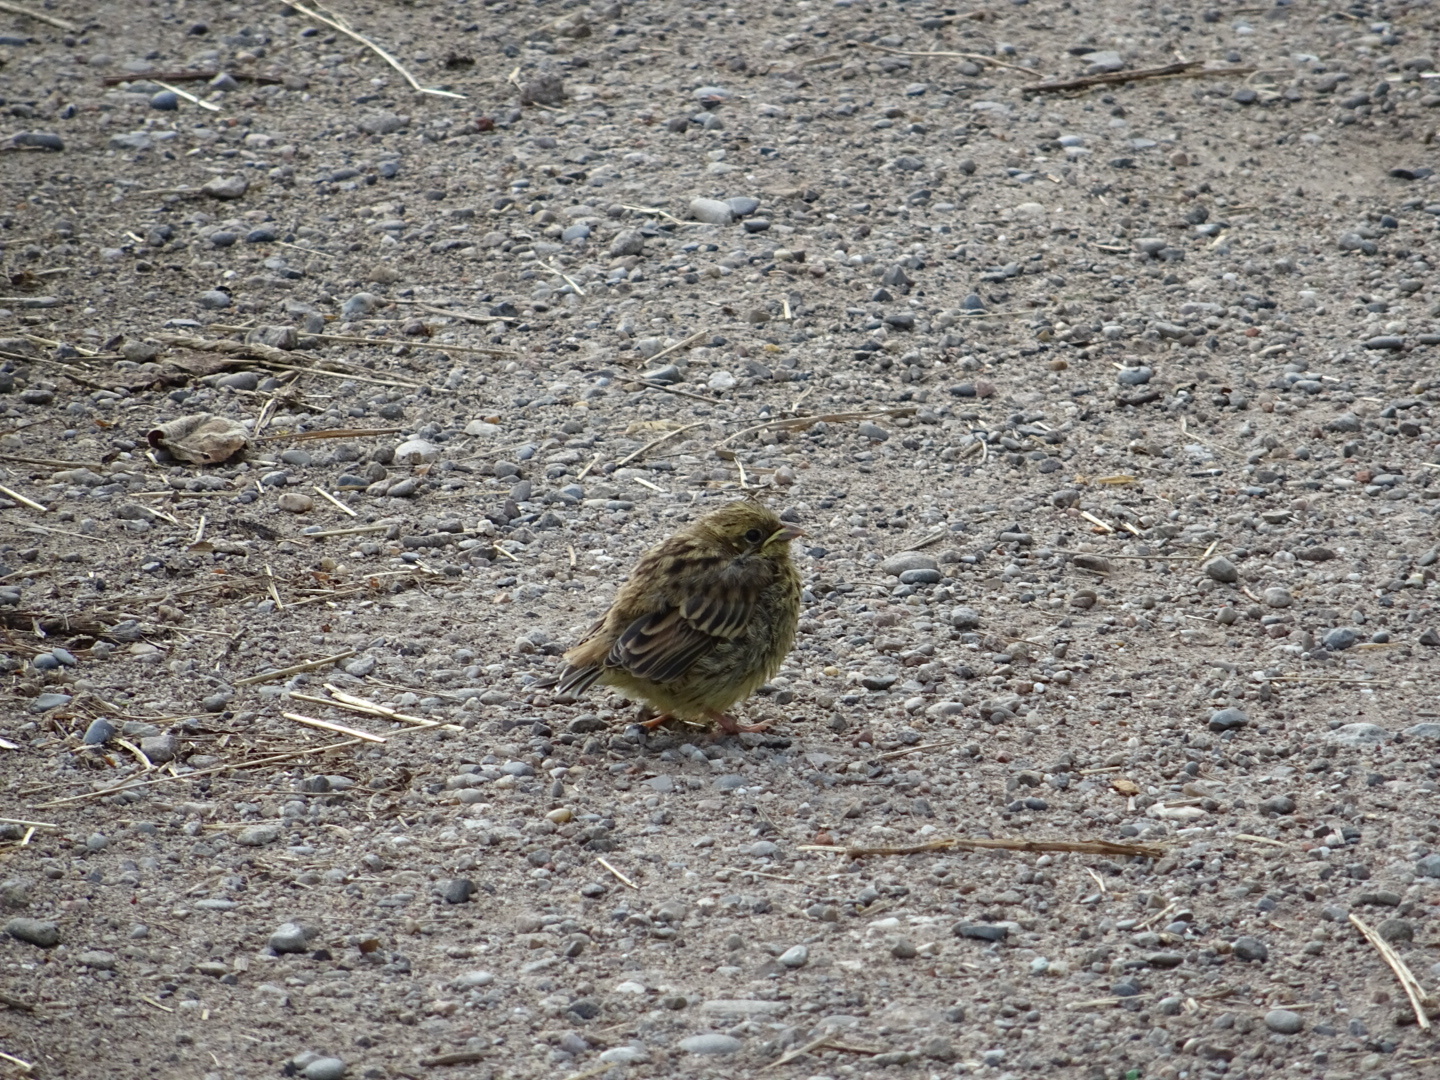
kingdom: Animalia
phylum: Chordata
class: Aves
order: Passeriformes
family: Emberizidae
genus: Emberiza
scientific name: Emberiza citrinella
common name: Yellowhammer
